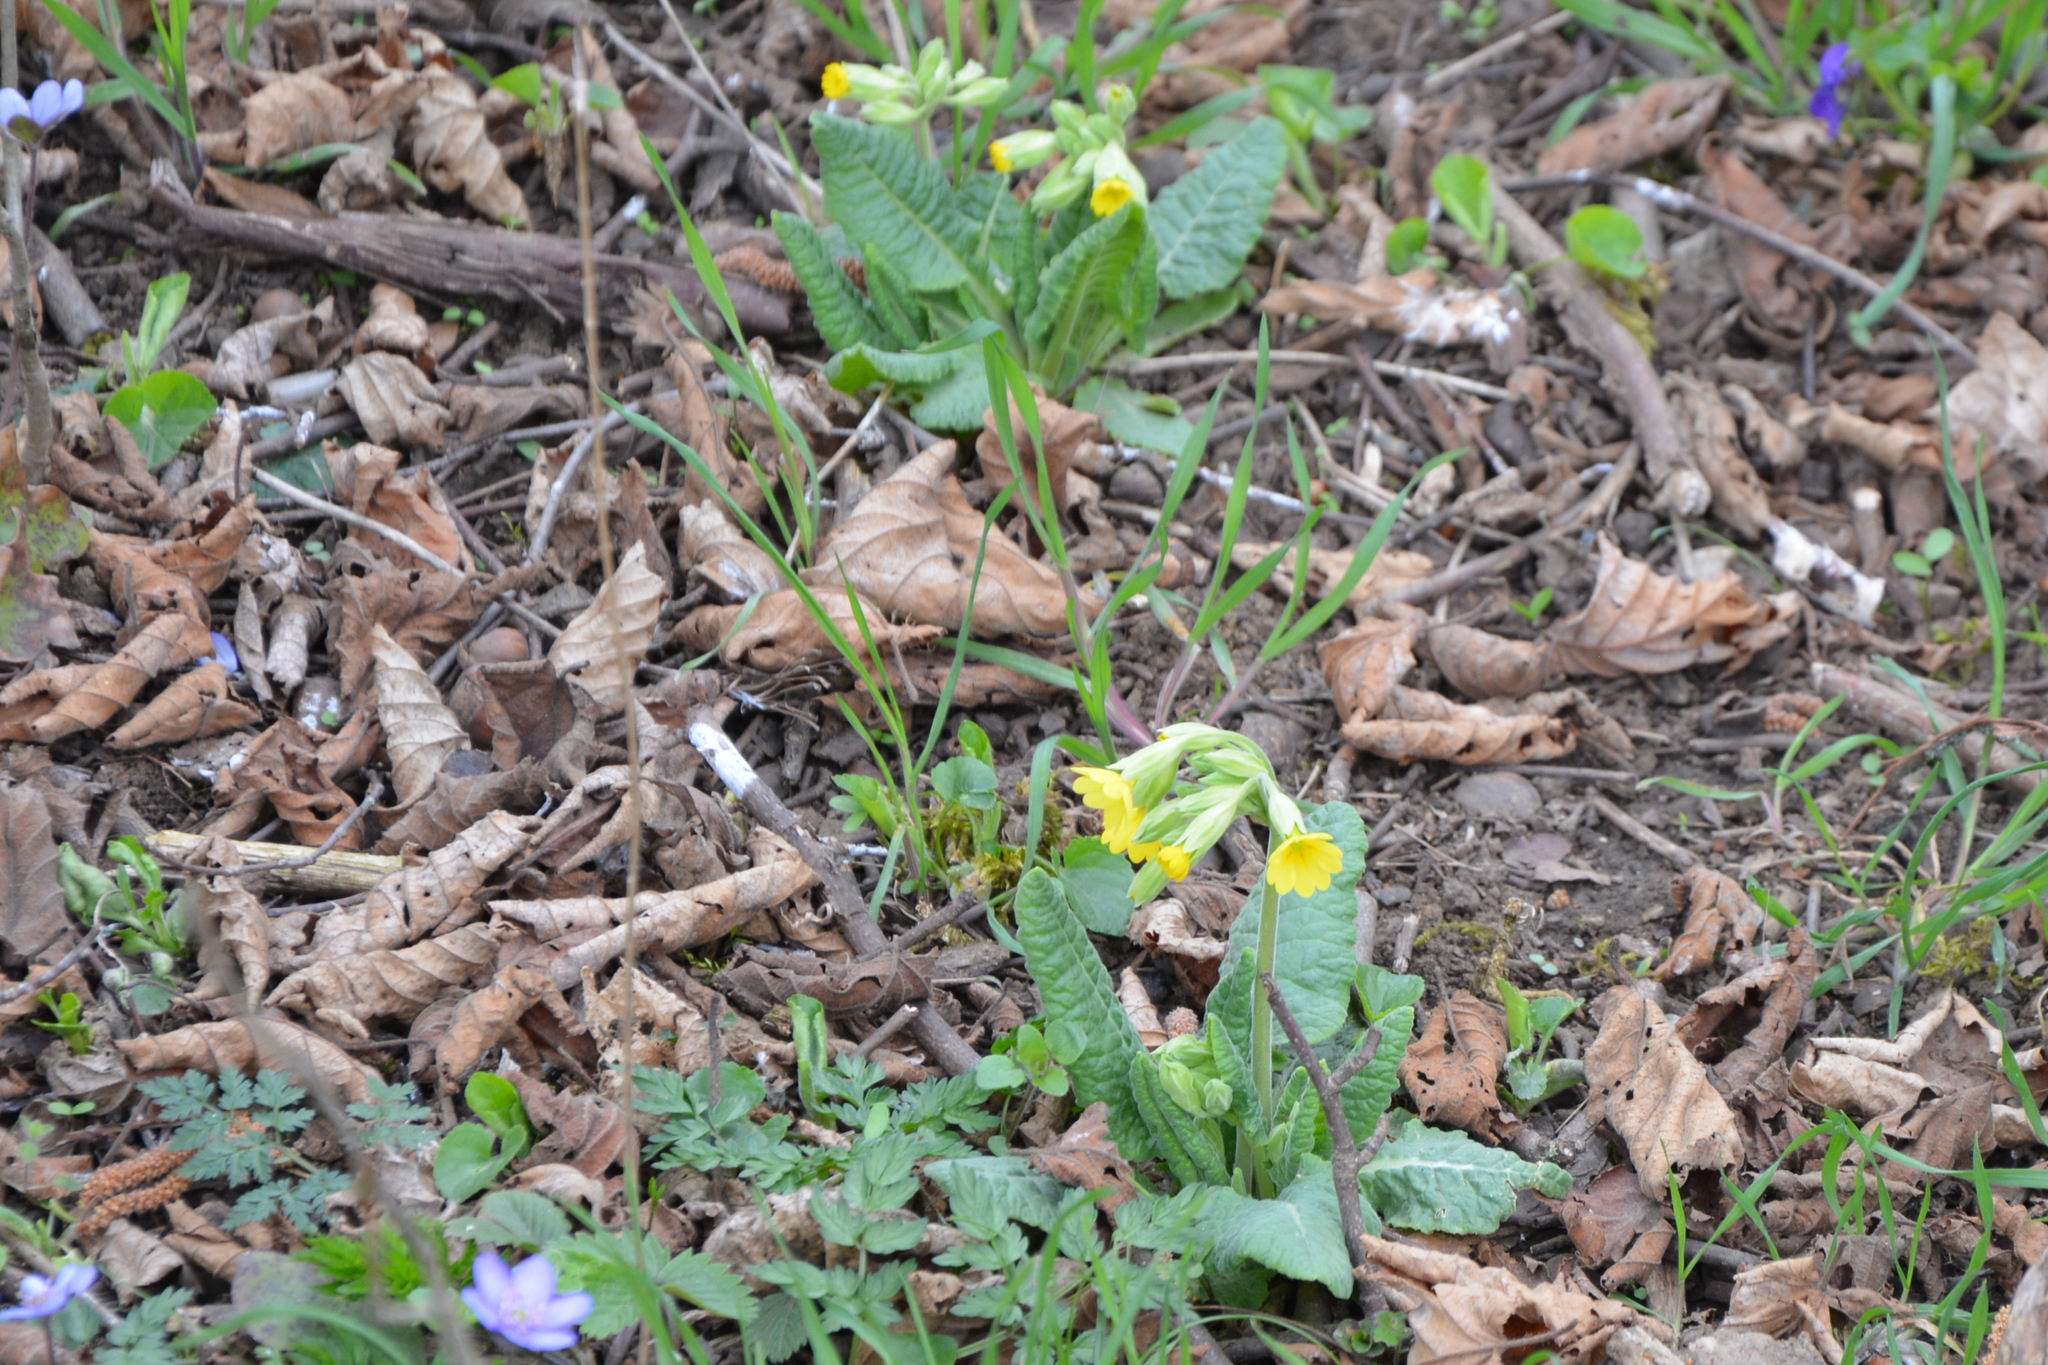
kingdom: Plantae
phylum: Tracheophyta
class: Magnoliopsida
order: Ericales
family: Primulaceae
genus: Primula
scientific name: Primula veris
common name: Cowslip
